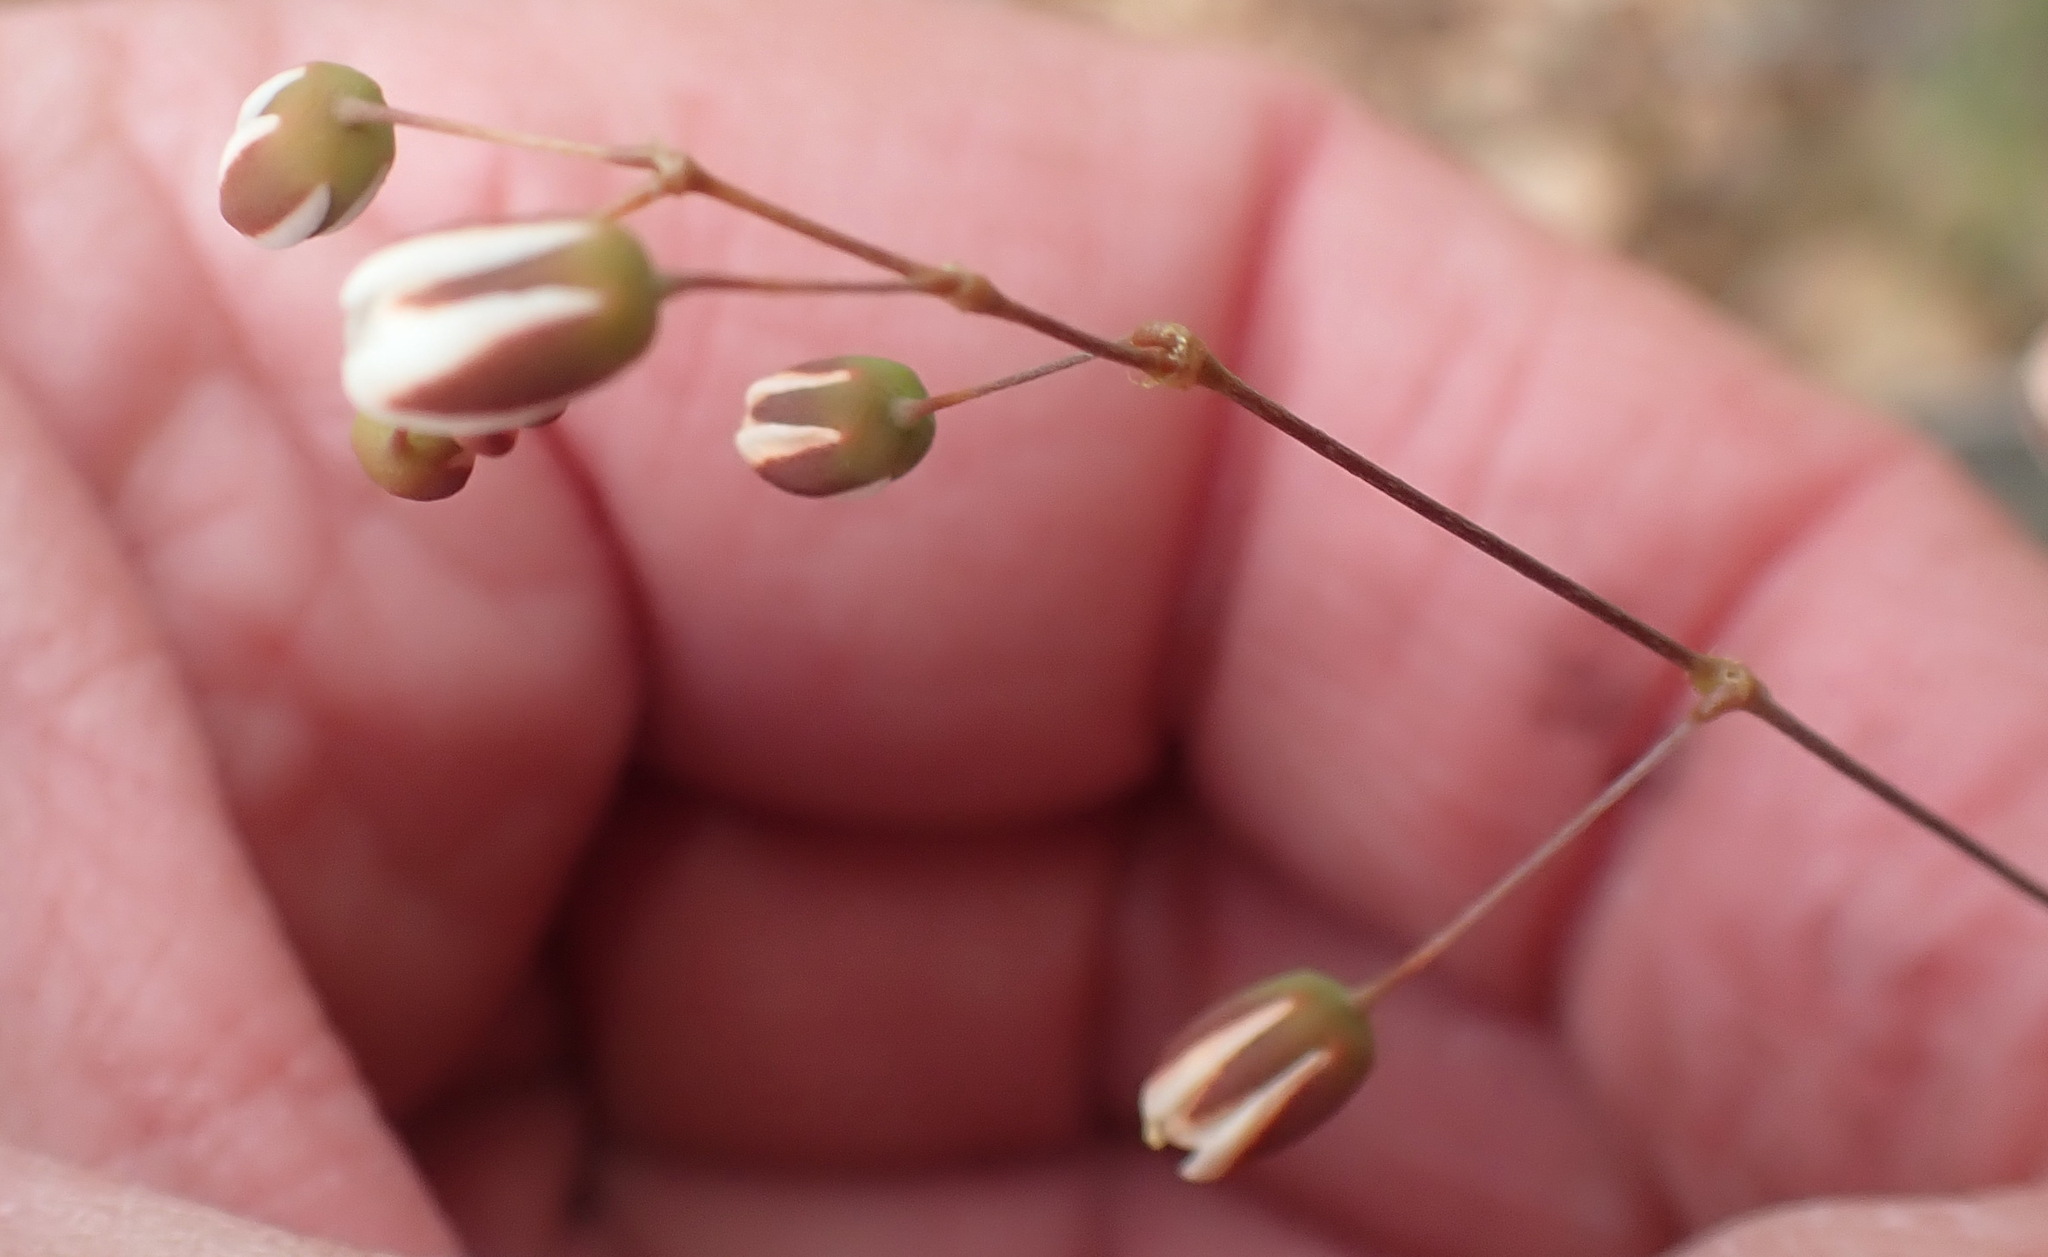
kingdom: Plantae
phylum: Tracheophyta
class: Magnoliopsida
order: Caryophyllales
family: Molluginaceae
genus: Pharnaceum
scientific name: Pharnaceum ciliare
